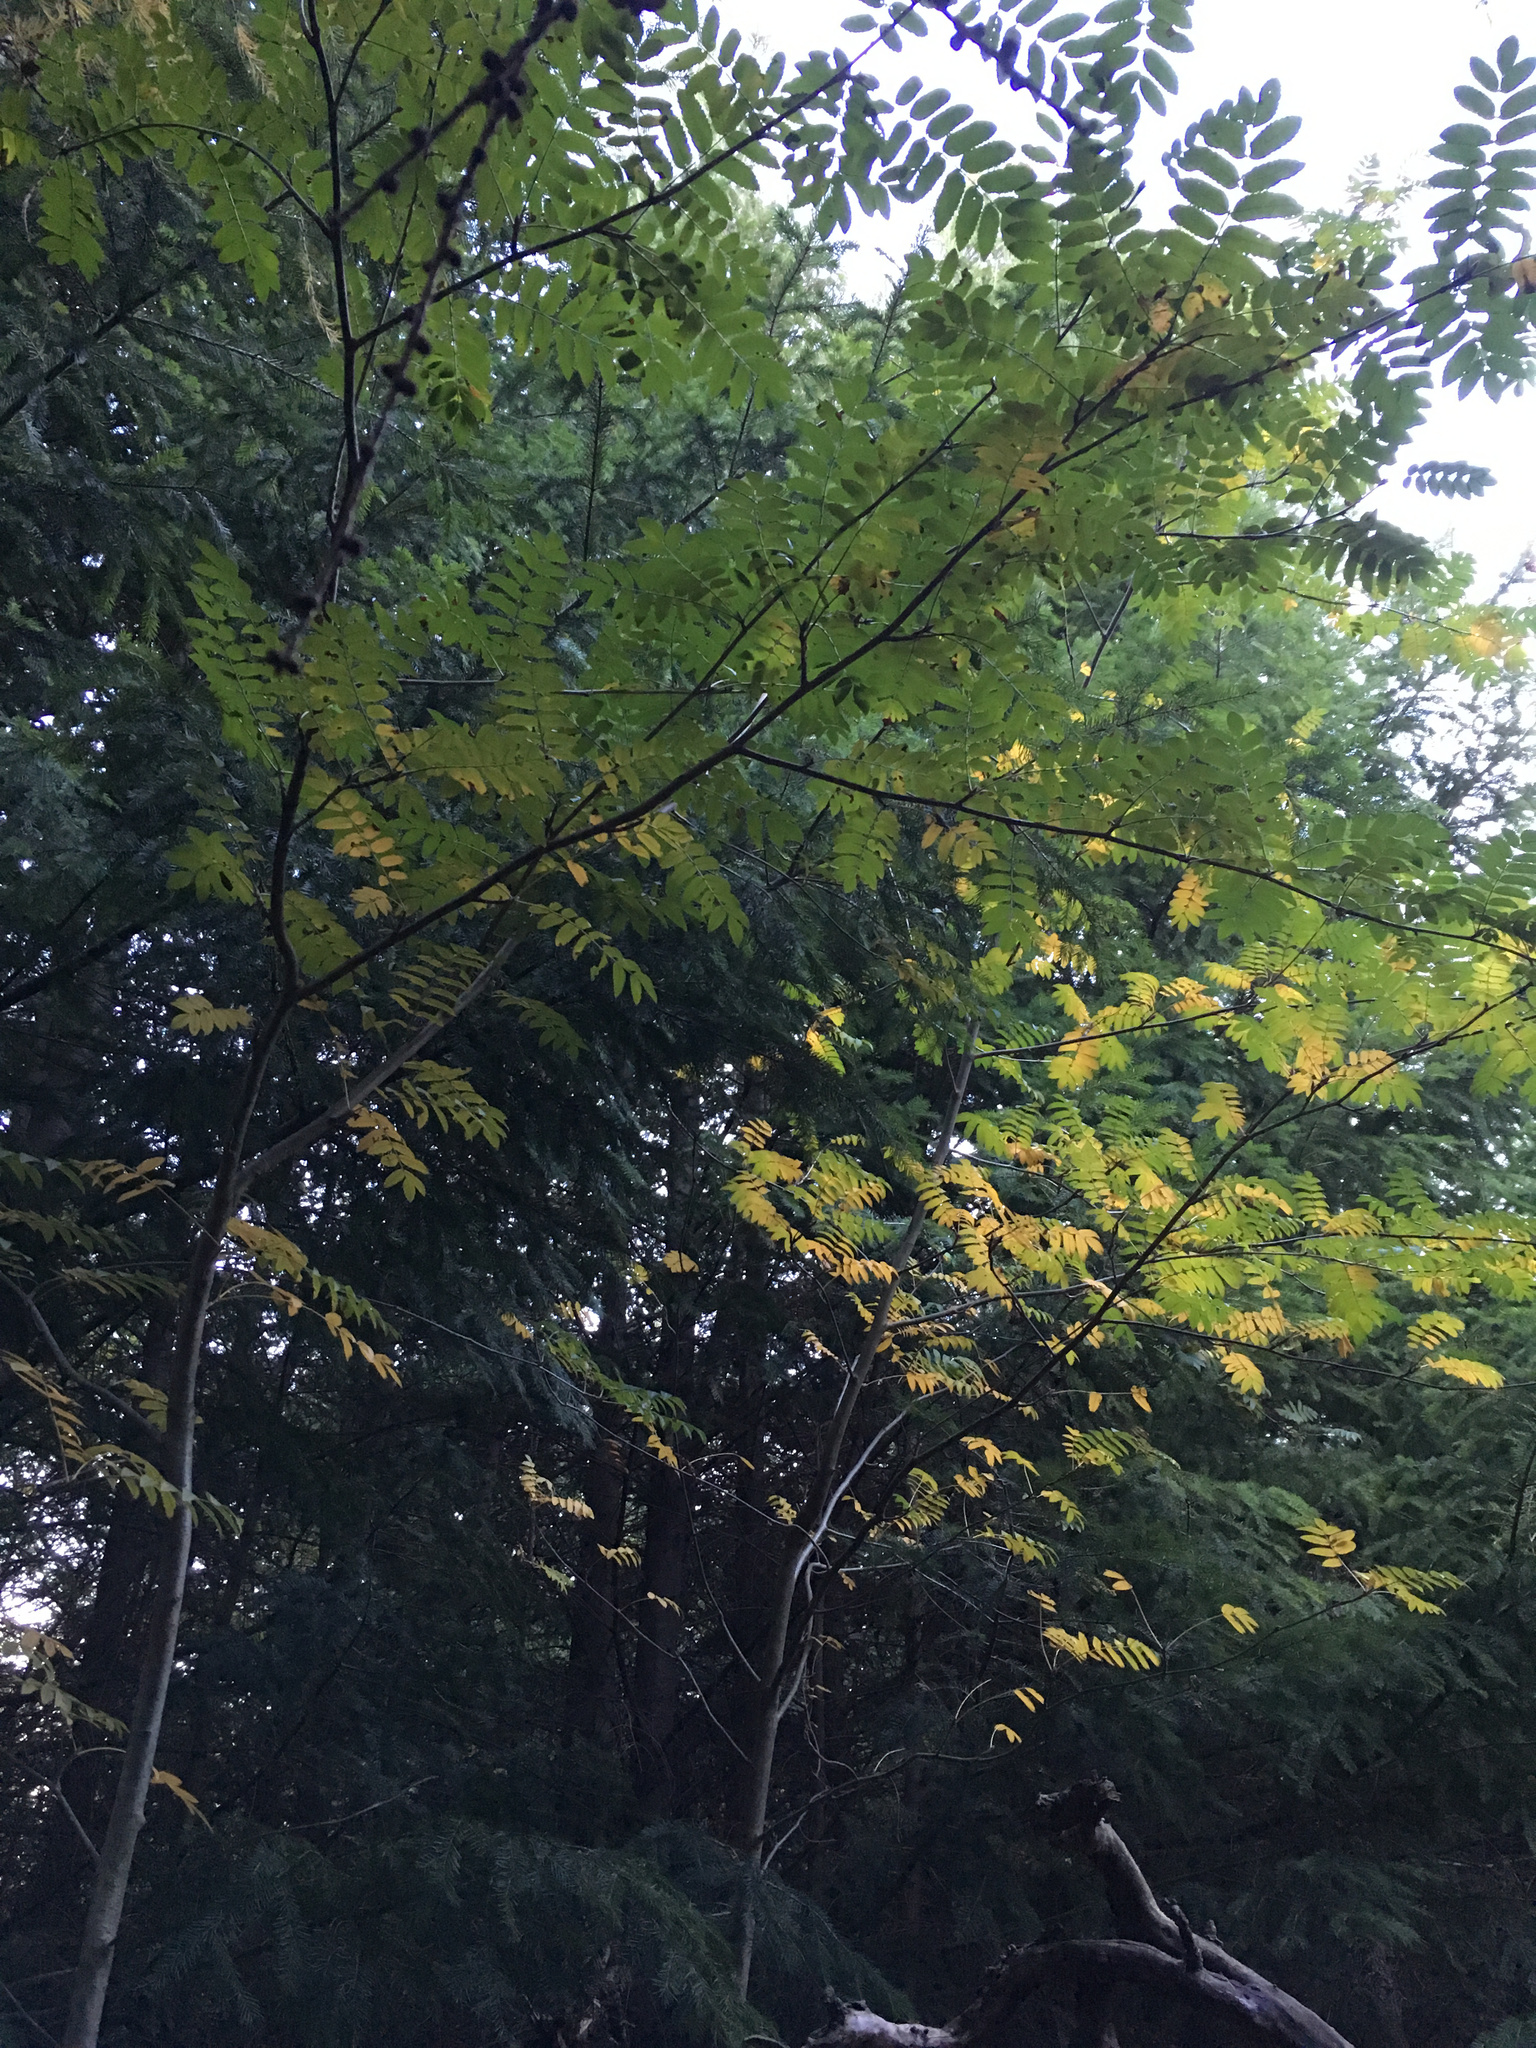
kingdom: Plantae
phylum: Tracheophyta
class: Magnoliopsida
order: Rosales
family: Rosaceae
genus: Sorbus
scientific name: Sorbus aucuparia
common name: Rowan
